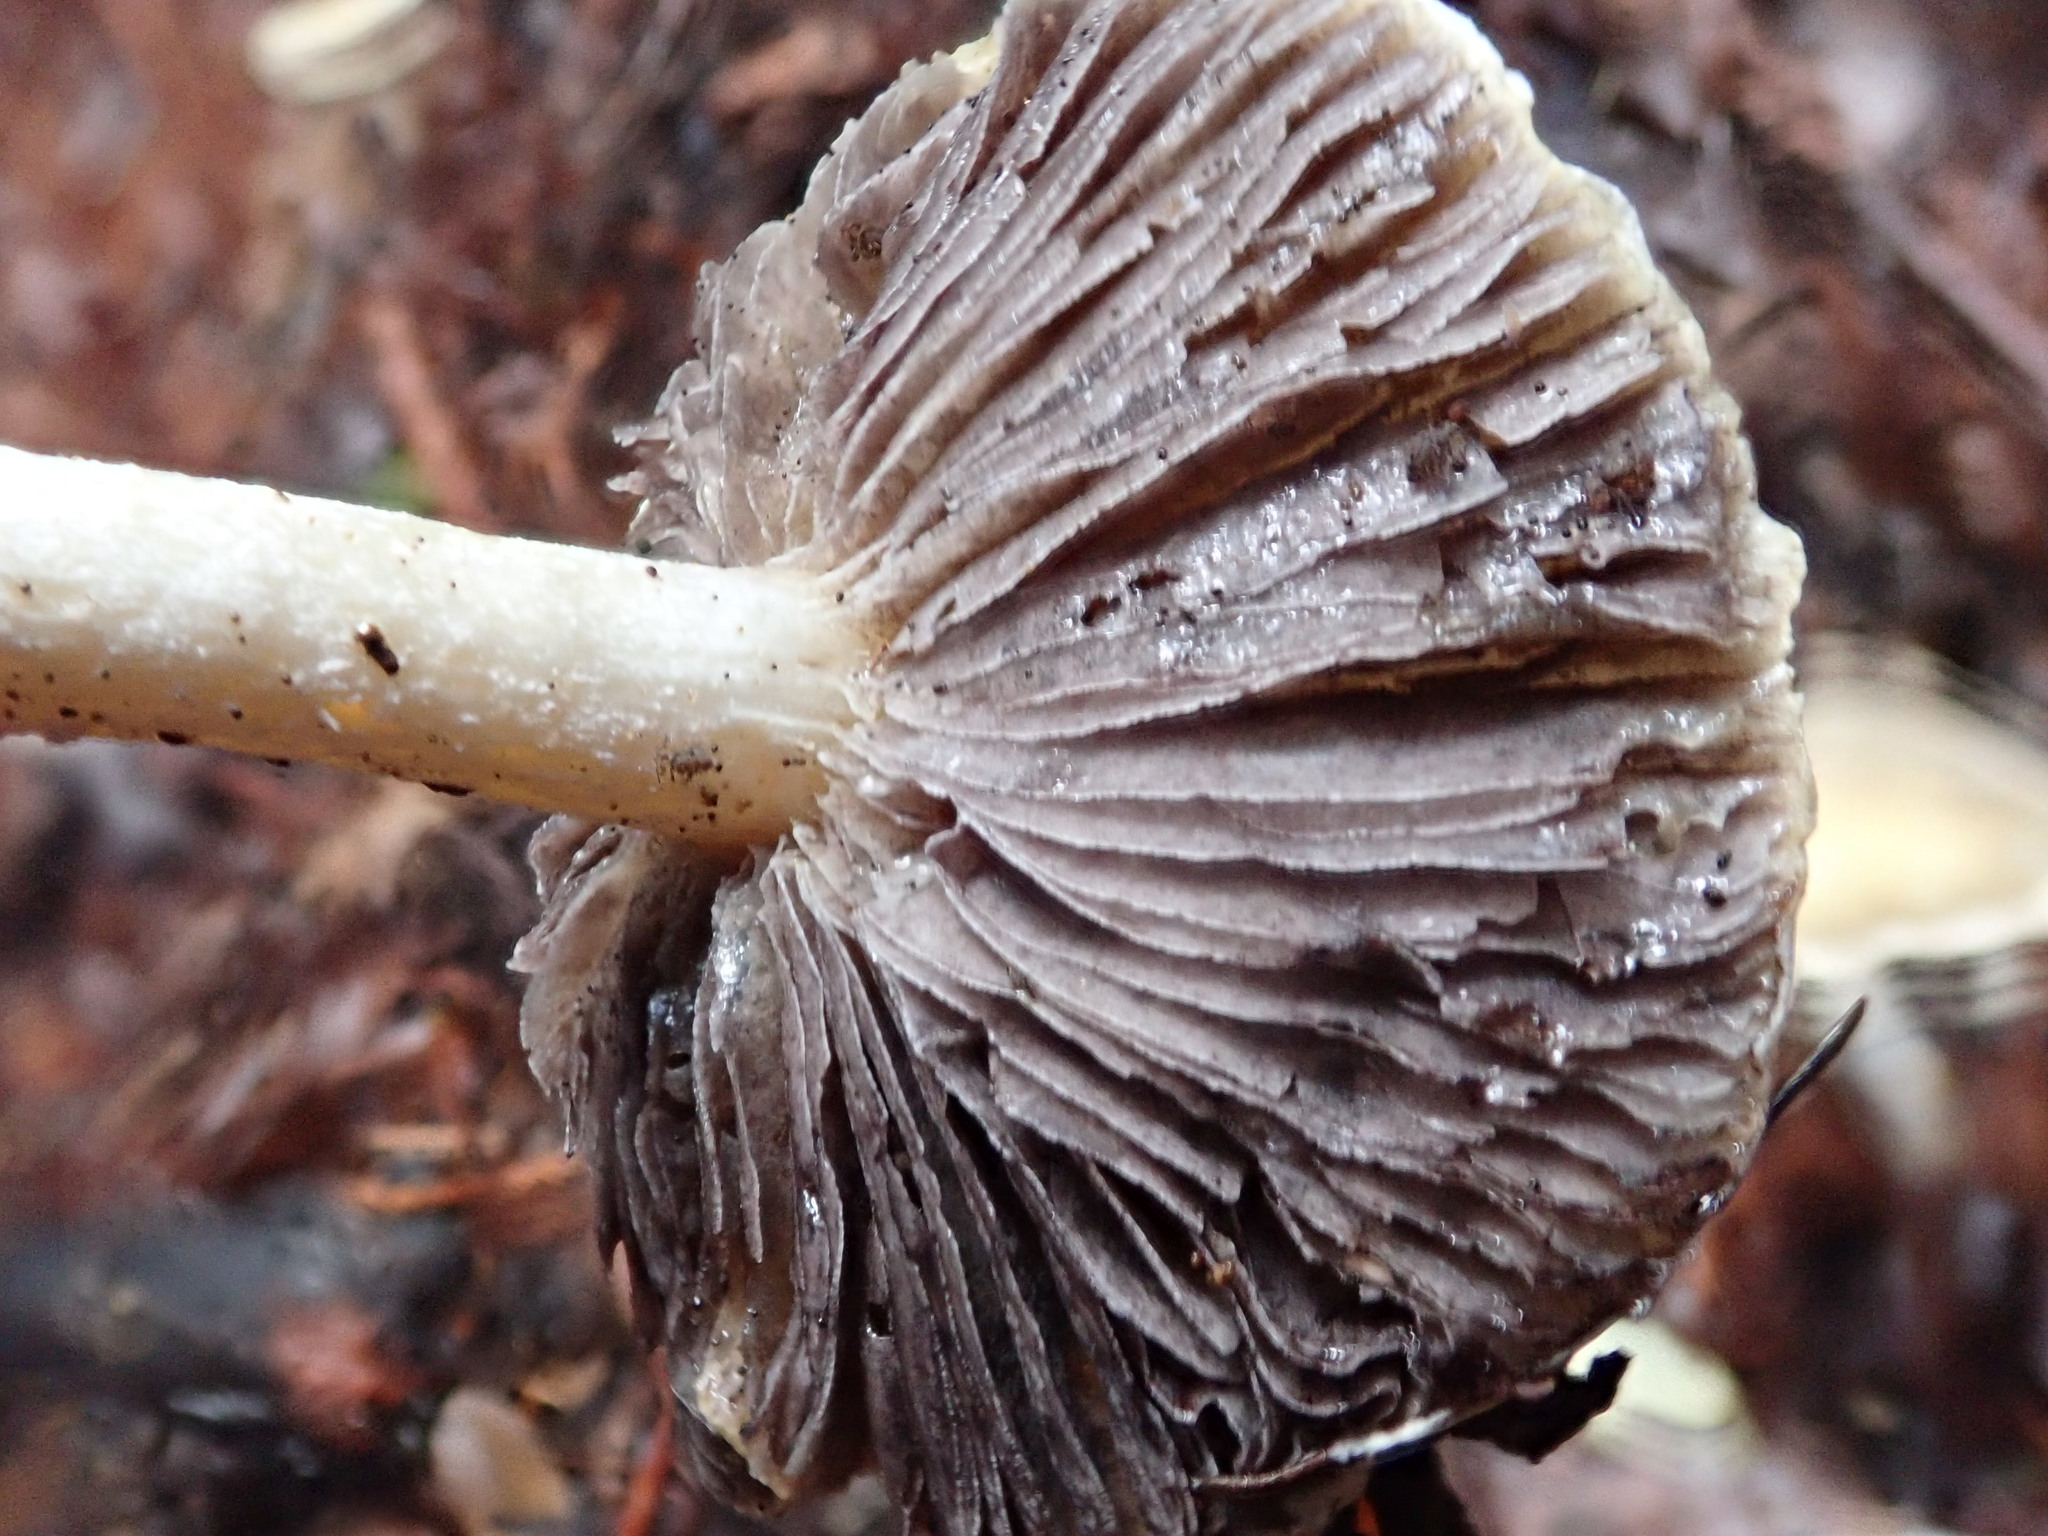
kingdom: Fungi
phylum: Basidiomycota
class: Agaricomycetes
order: Agaricales
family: Strophariaceae
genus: Stropharia
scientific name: Stropharia ambigua
